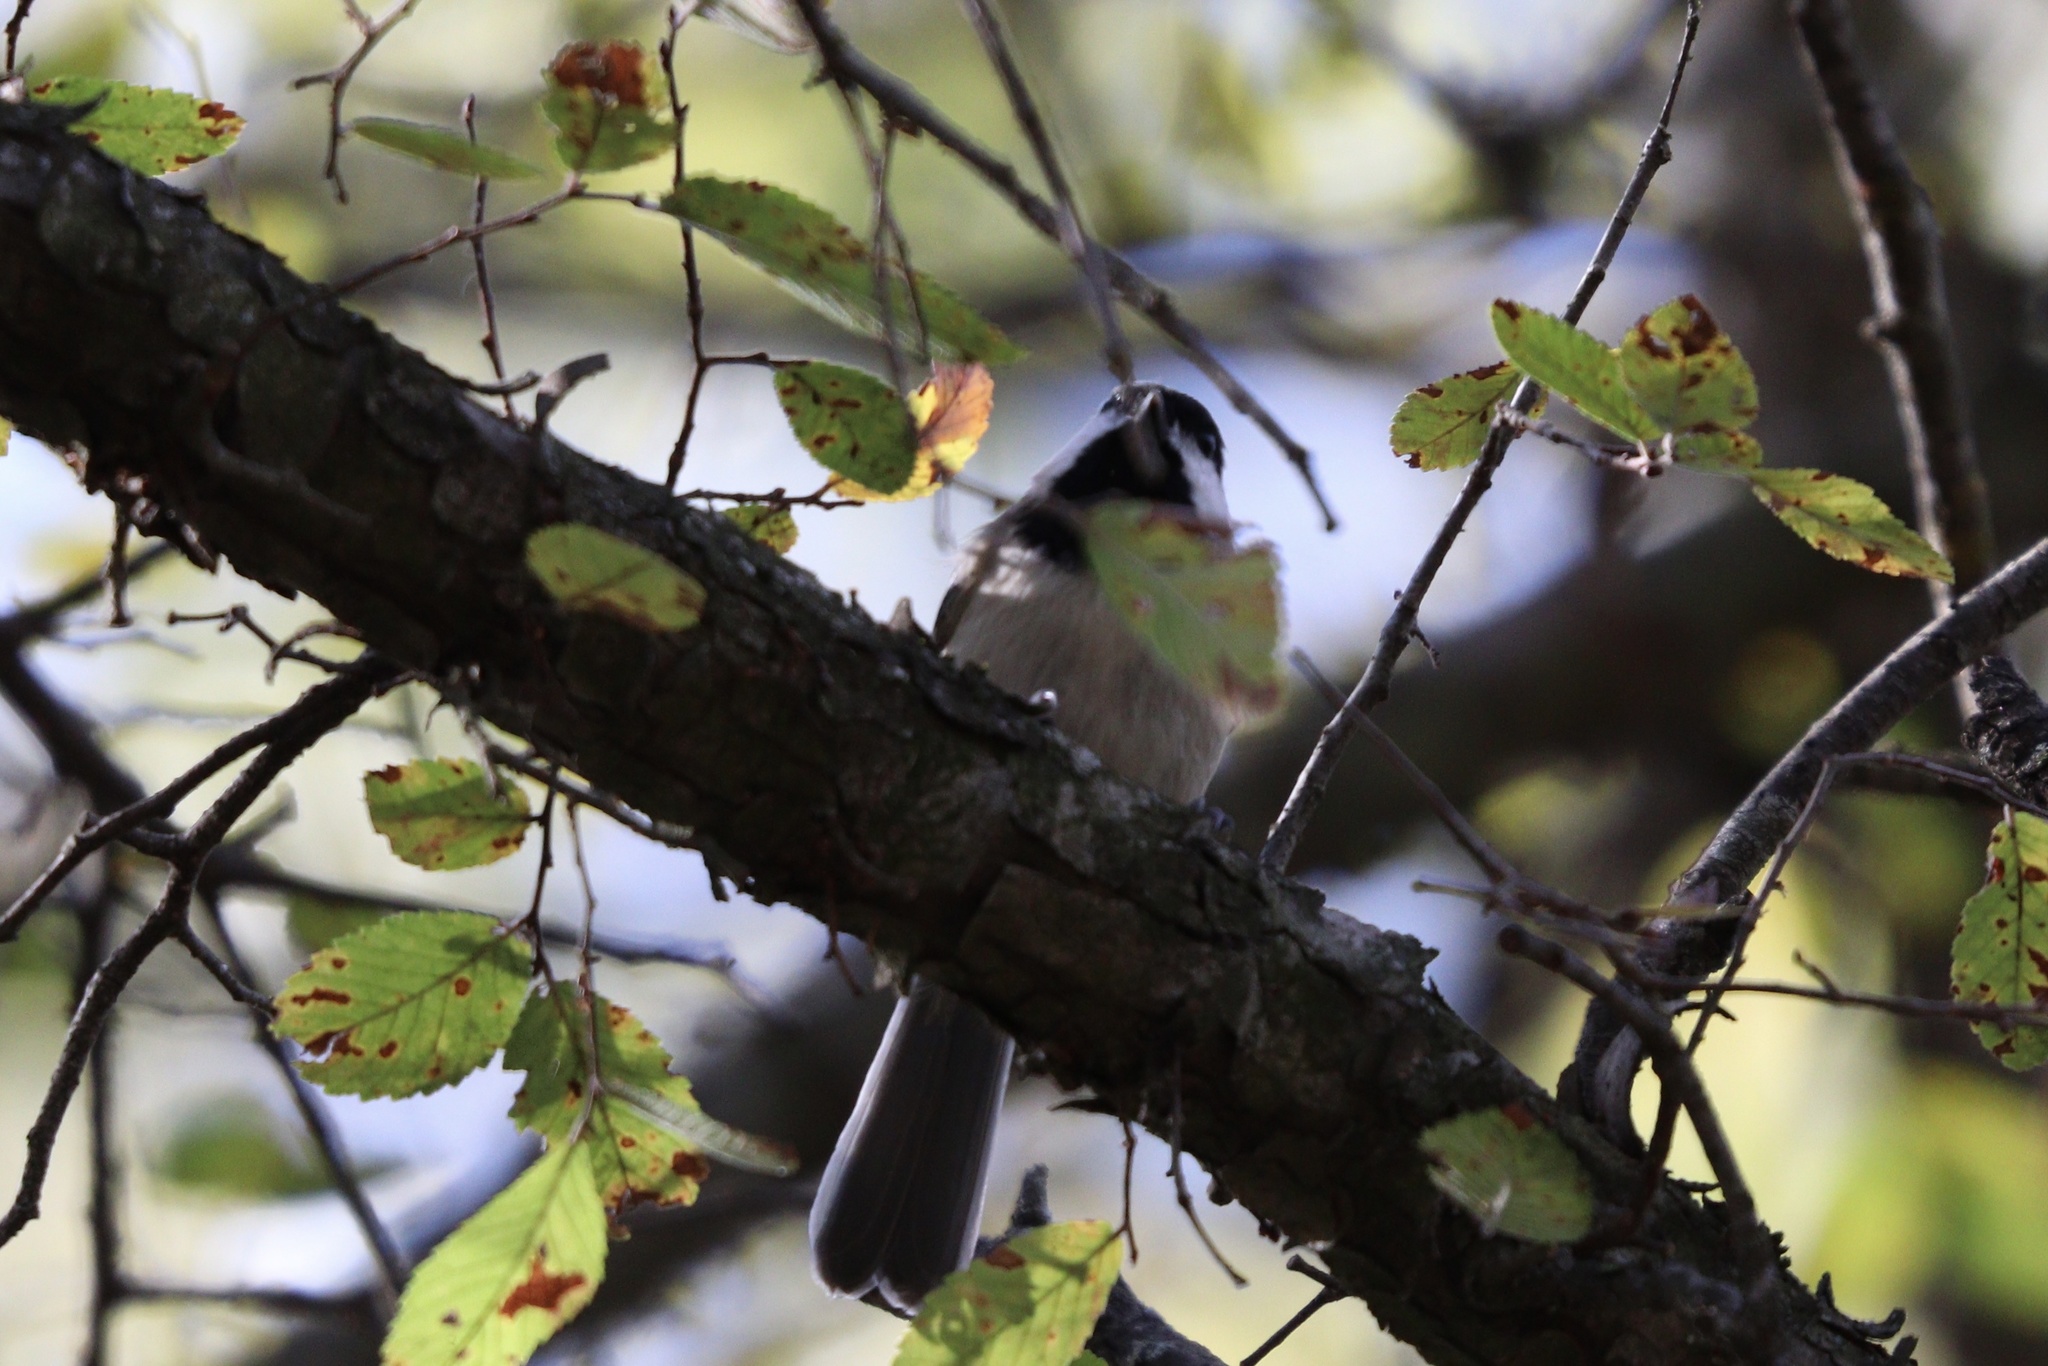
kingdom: Animalia
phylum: Chordata
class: Aves
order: Passeriformes
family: Paridae
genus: Poecile
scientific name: Poecile carolinensis
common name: Carolina chickadee
